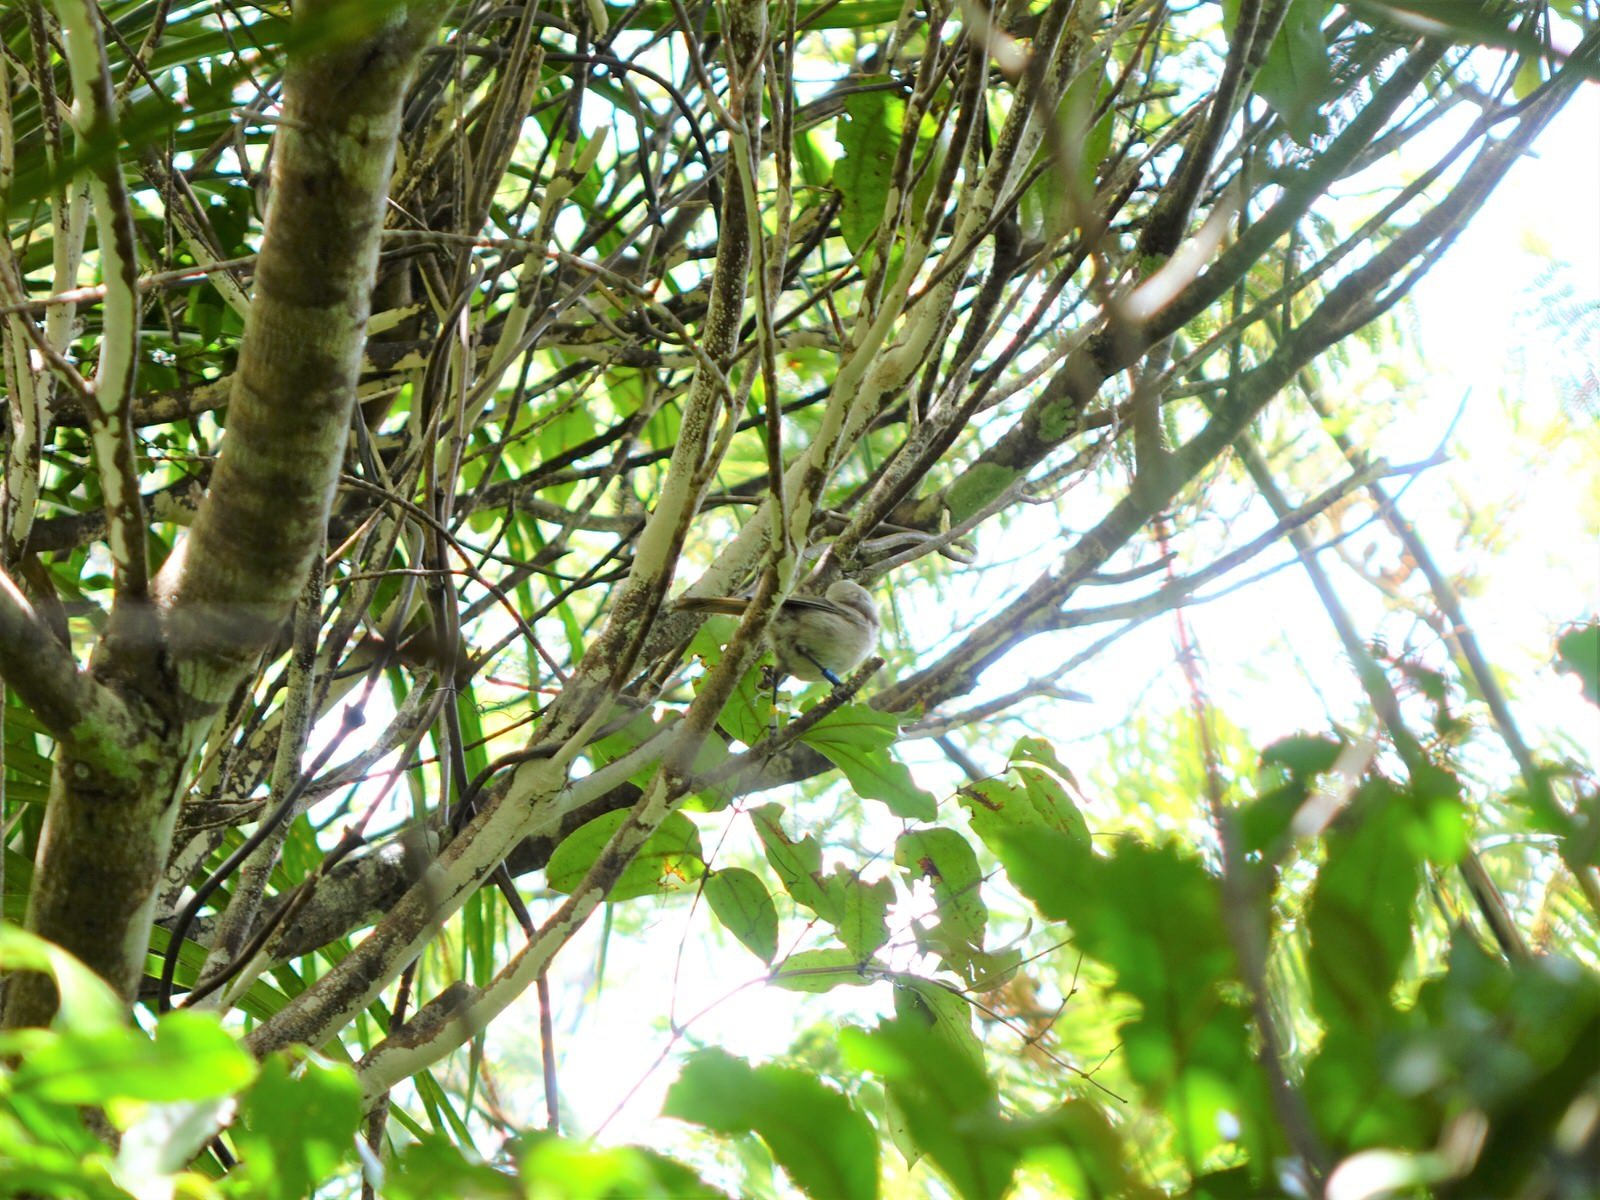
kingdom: Animalia
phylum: Chordata
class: Aves
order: Passeriformes
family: Acanthizidae
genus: Mohoua
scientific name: Mohoua albicilla
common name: Whitehead
